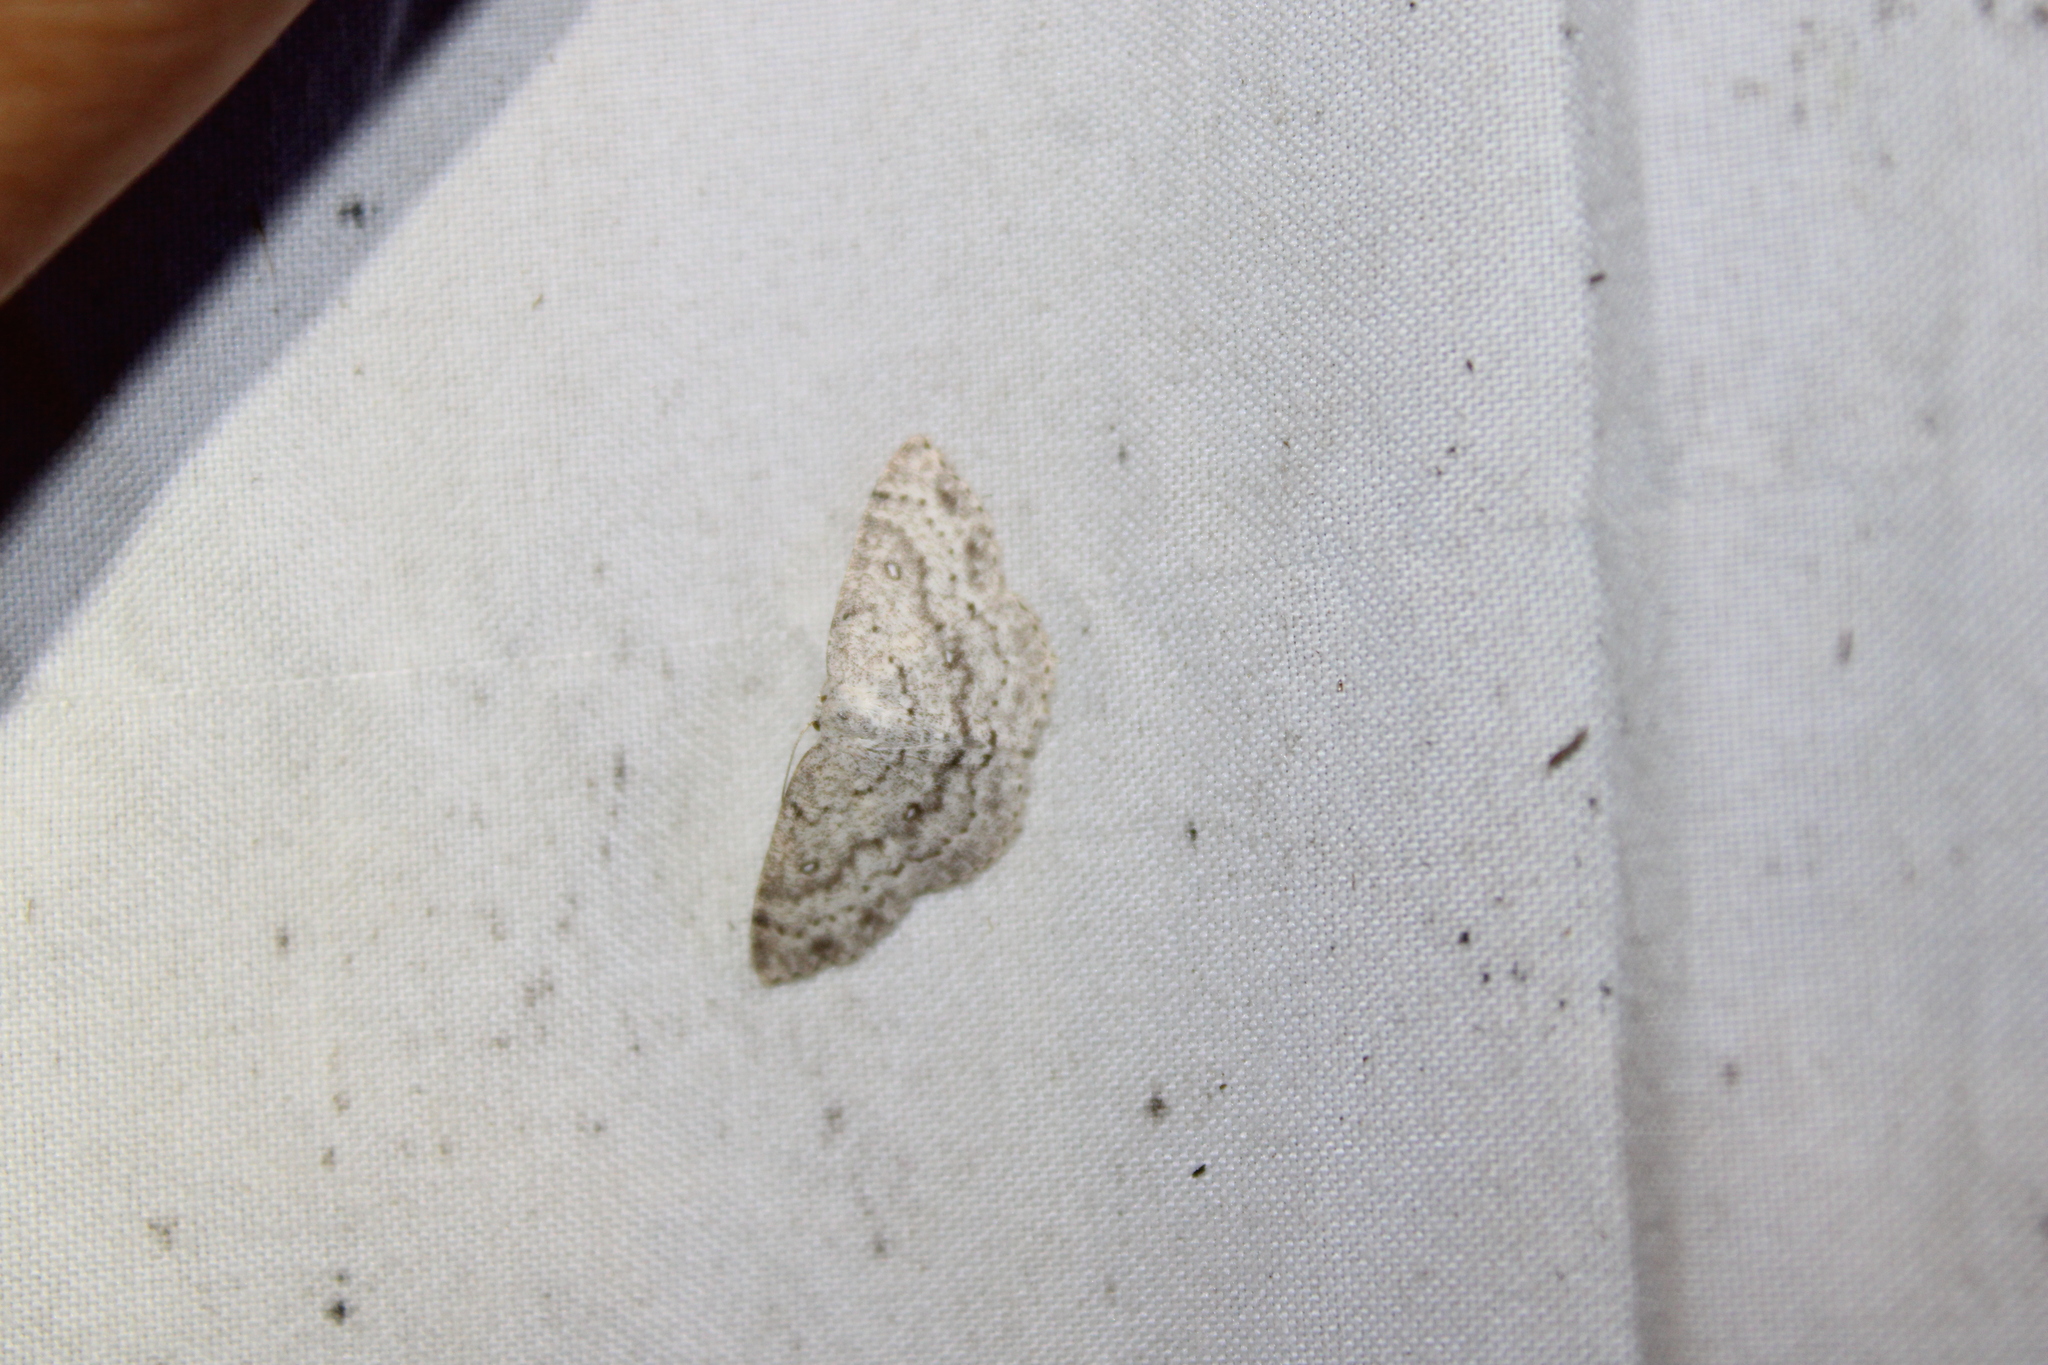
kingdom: Animalia
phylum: Arthropoda
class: Insecta
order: Lepidoptera
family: Geometridae
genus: Cyclophora
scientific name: Cyclophora pendulinaria
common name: Sweet fern geometer
